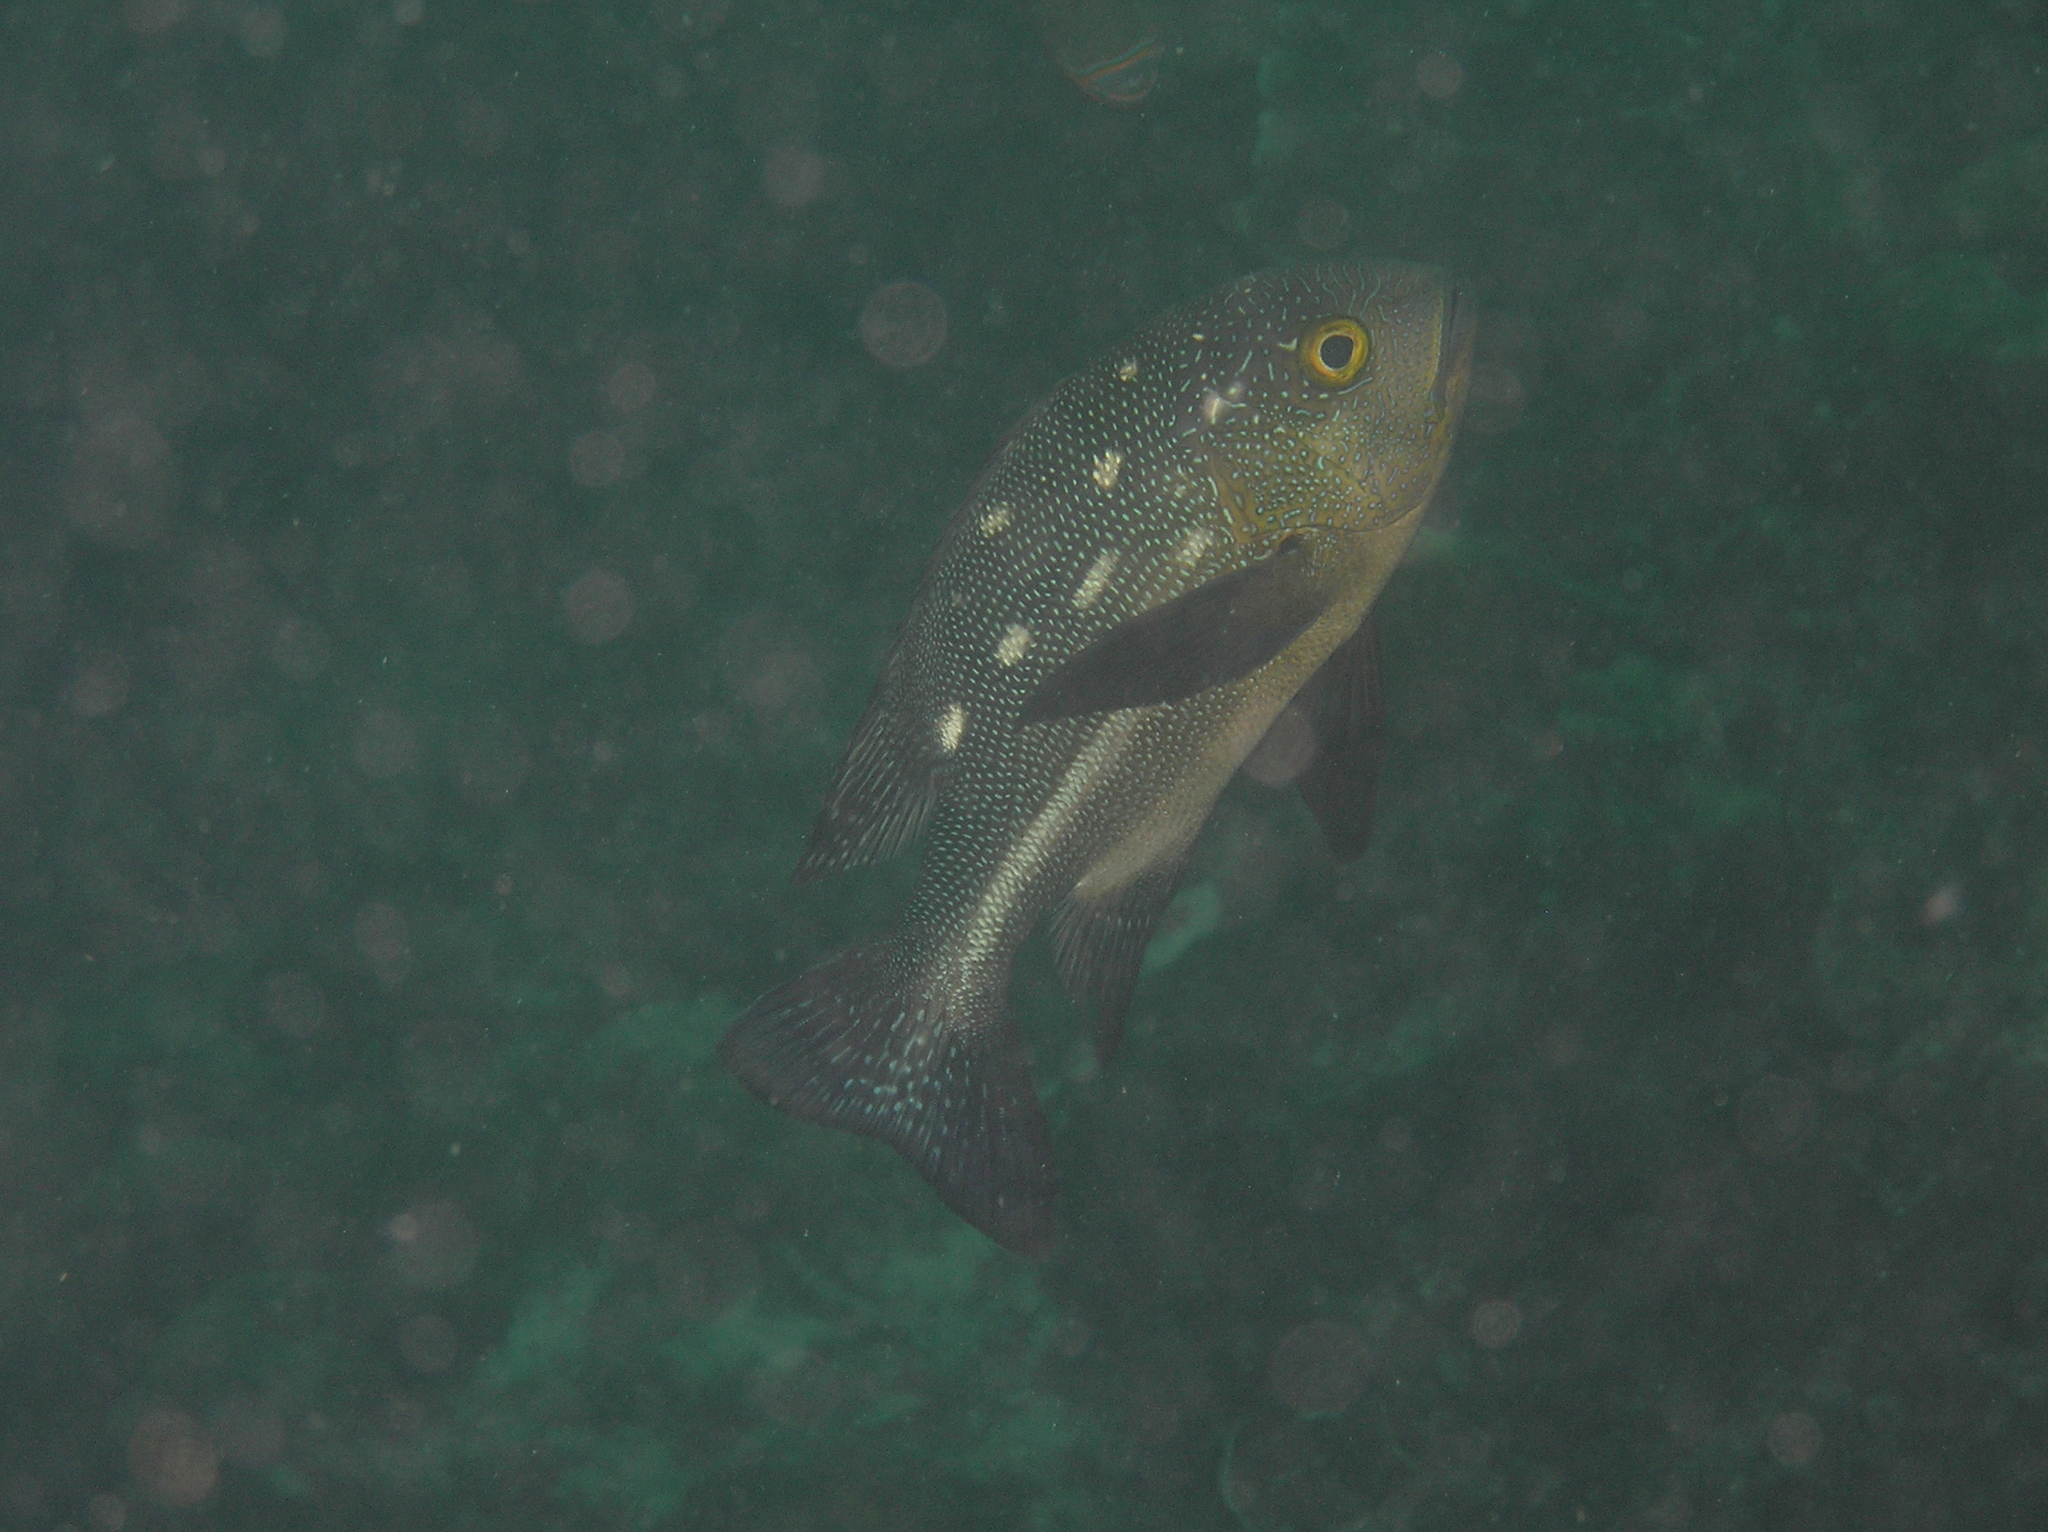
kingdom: Animalia
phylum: Chordata
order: Perciformes
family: Lutjanidae
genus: Macolor
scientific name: Macolor macularis
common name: Midnight snapper
